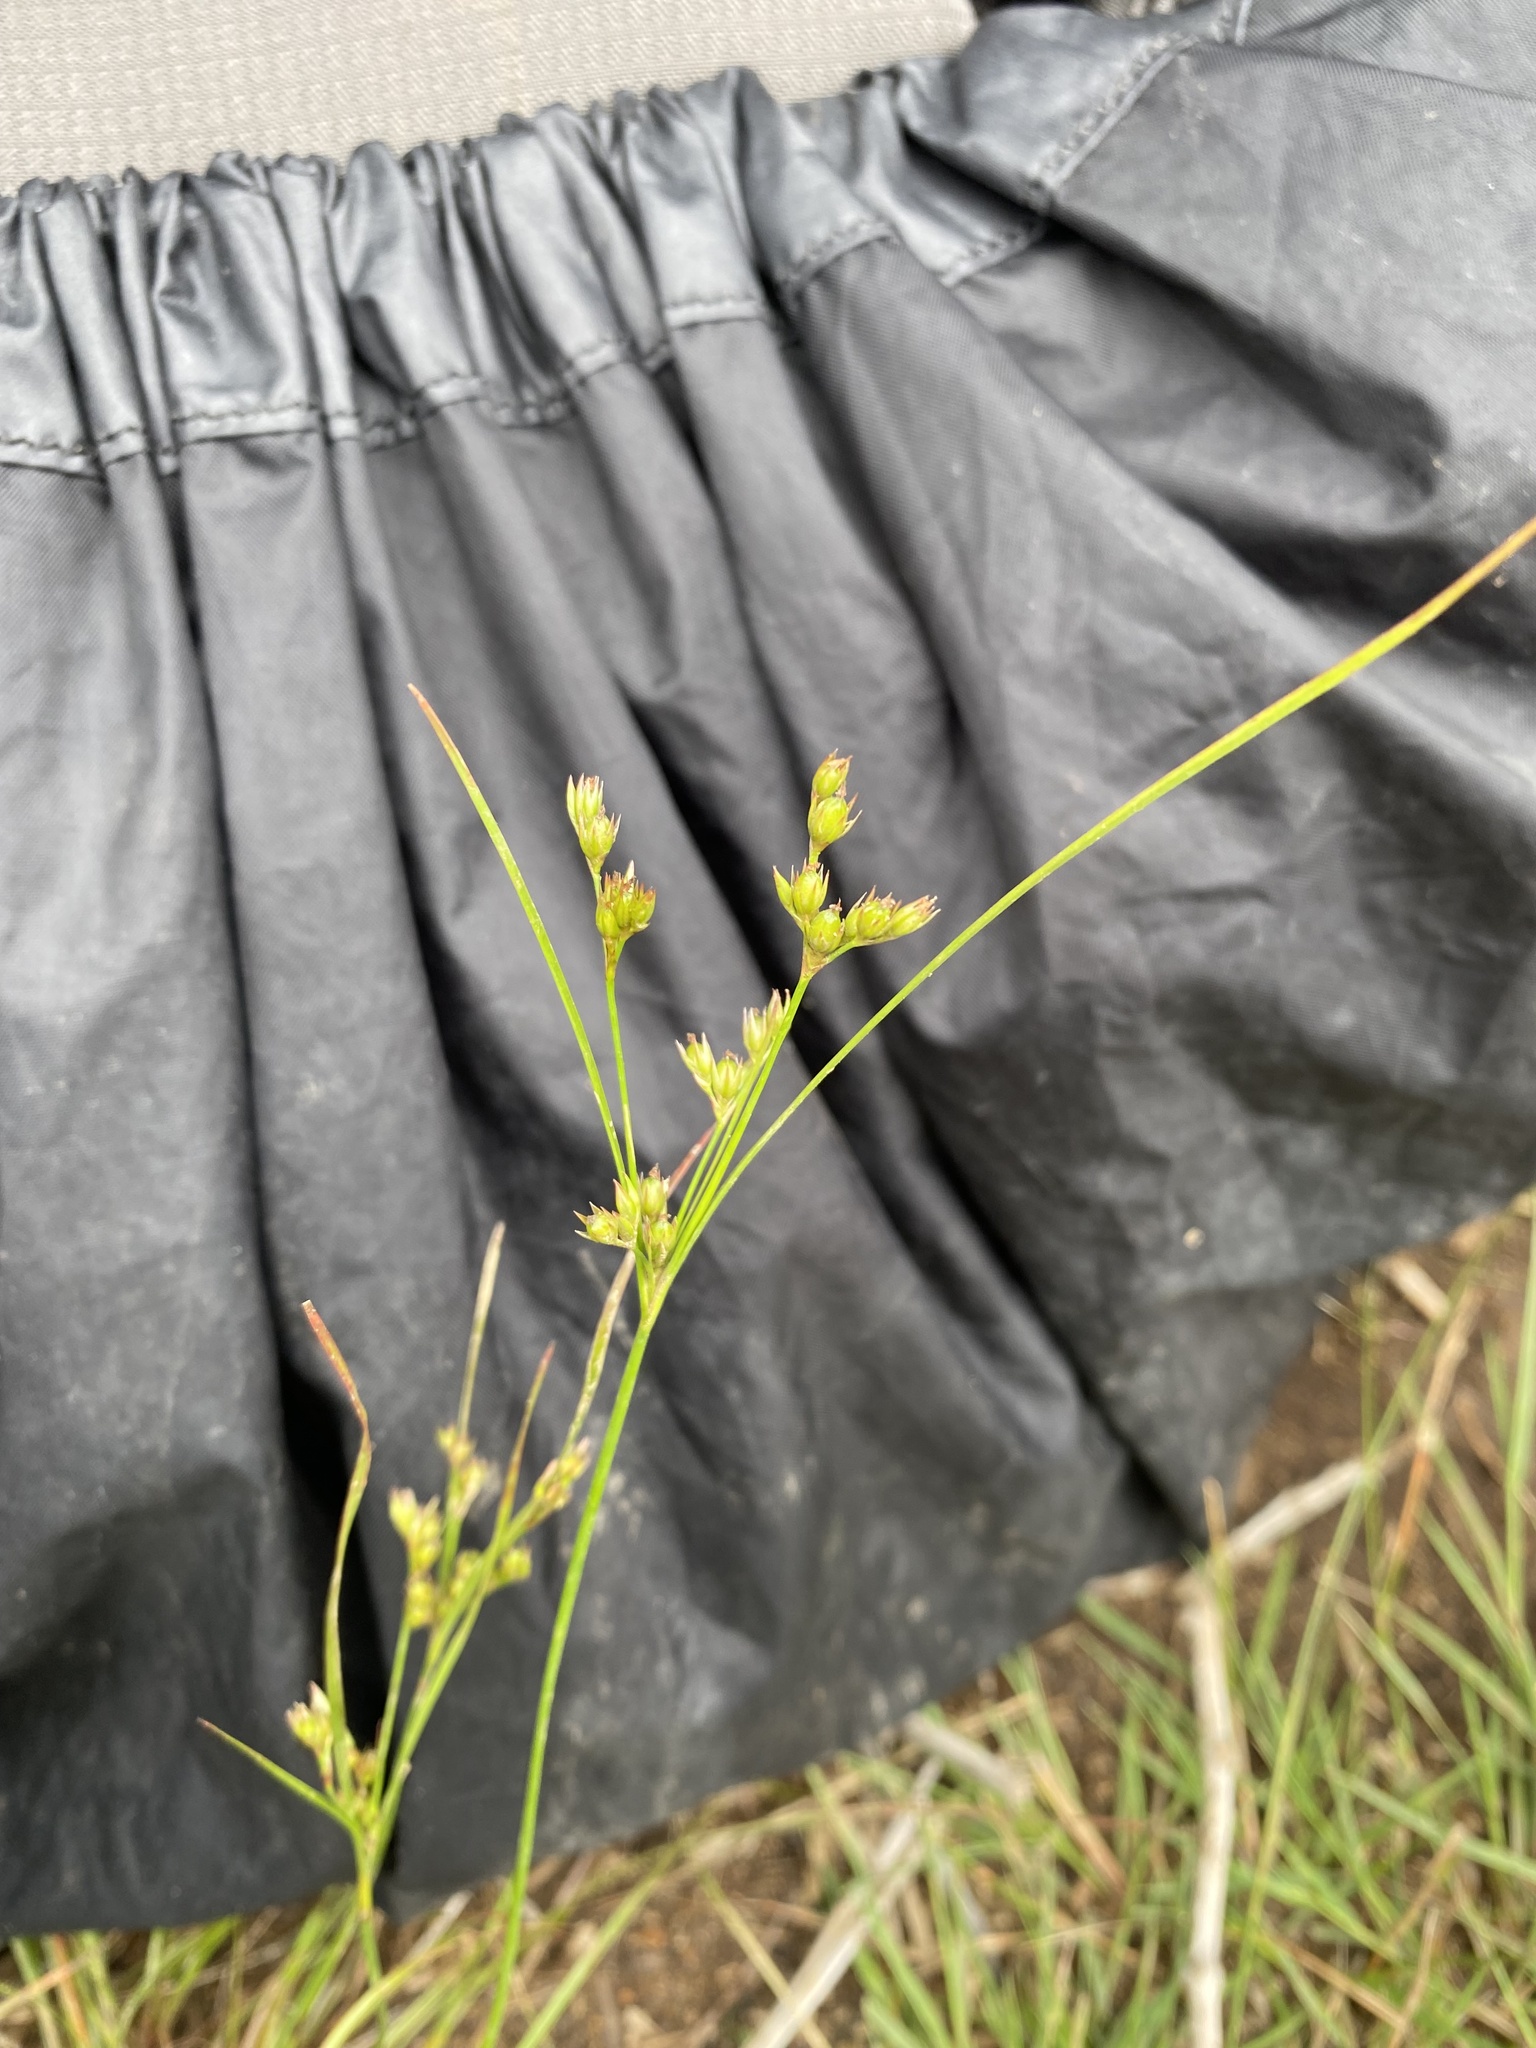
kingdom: Plantae
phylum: Tracheophyta
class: Liliopsida
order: Poales
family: Juncaceae
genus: Juncus
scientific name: Juncus tenuis
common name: Slender rush
